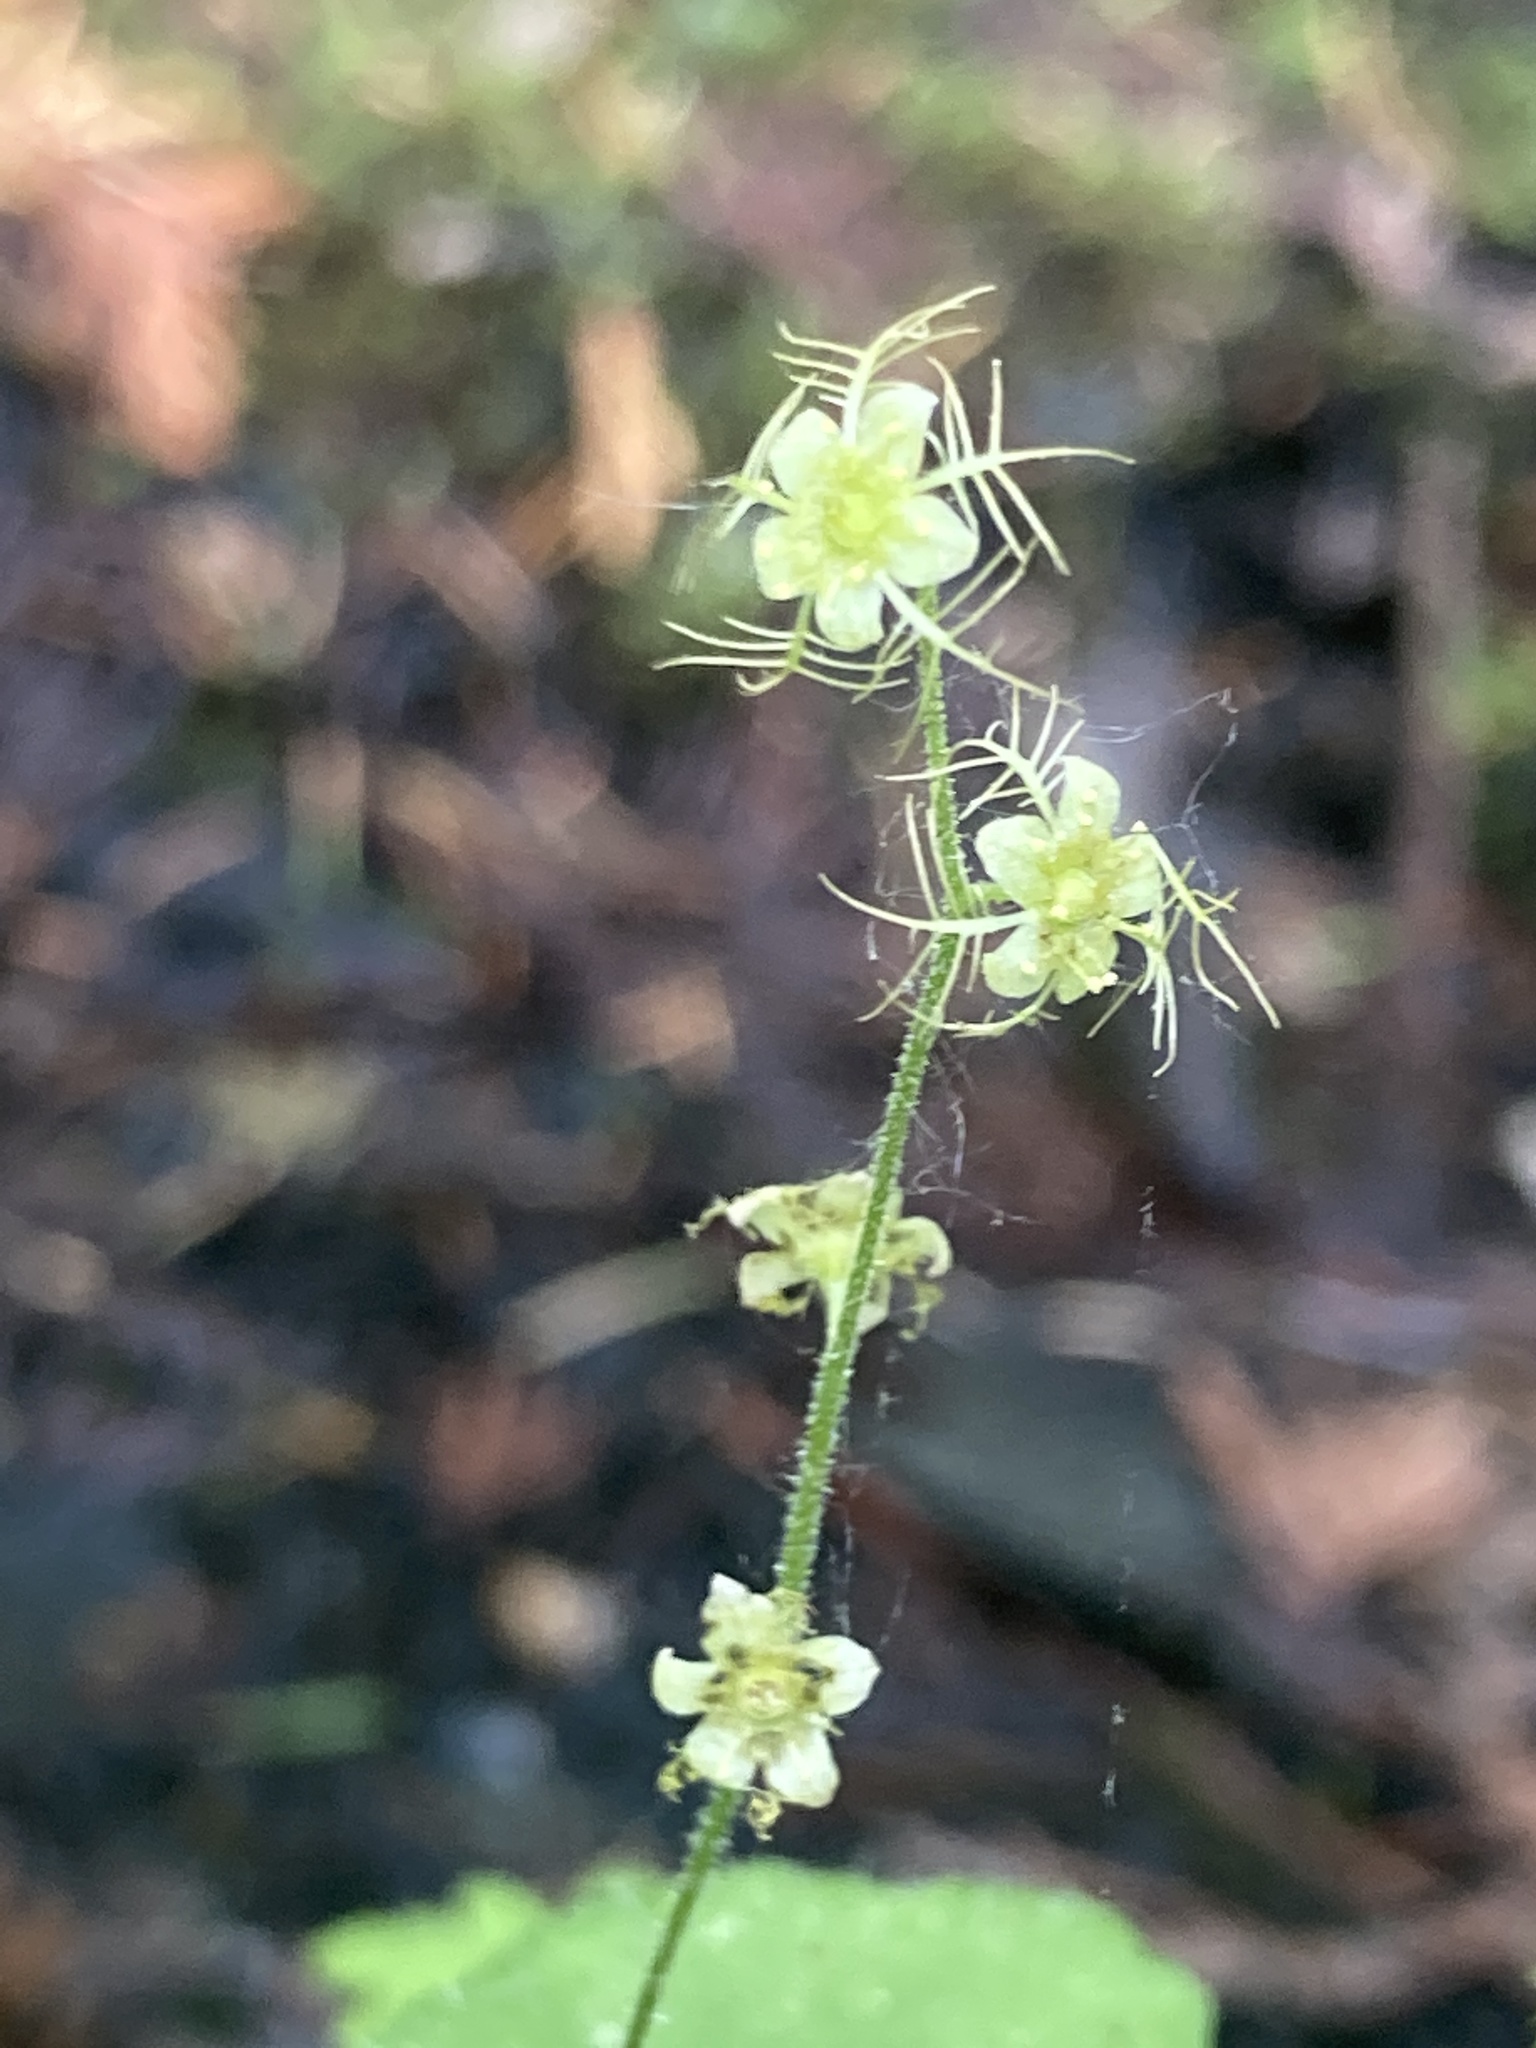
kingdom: Plantae
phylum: Tracheophyta
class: Magnoliopsida
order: Saxifragales
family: Saxifragaceae
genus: Mitella
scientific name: Mitella nuda
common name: Bare-stemmed bishop's-cap
